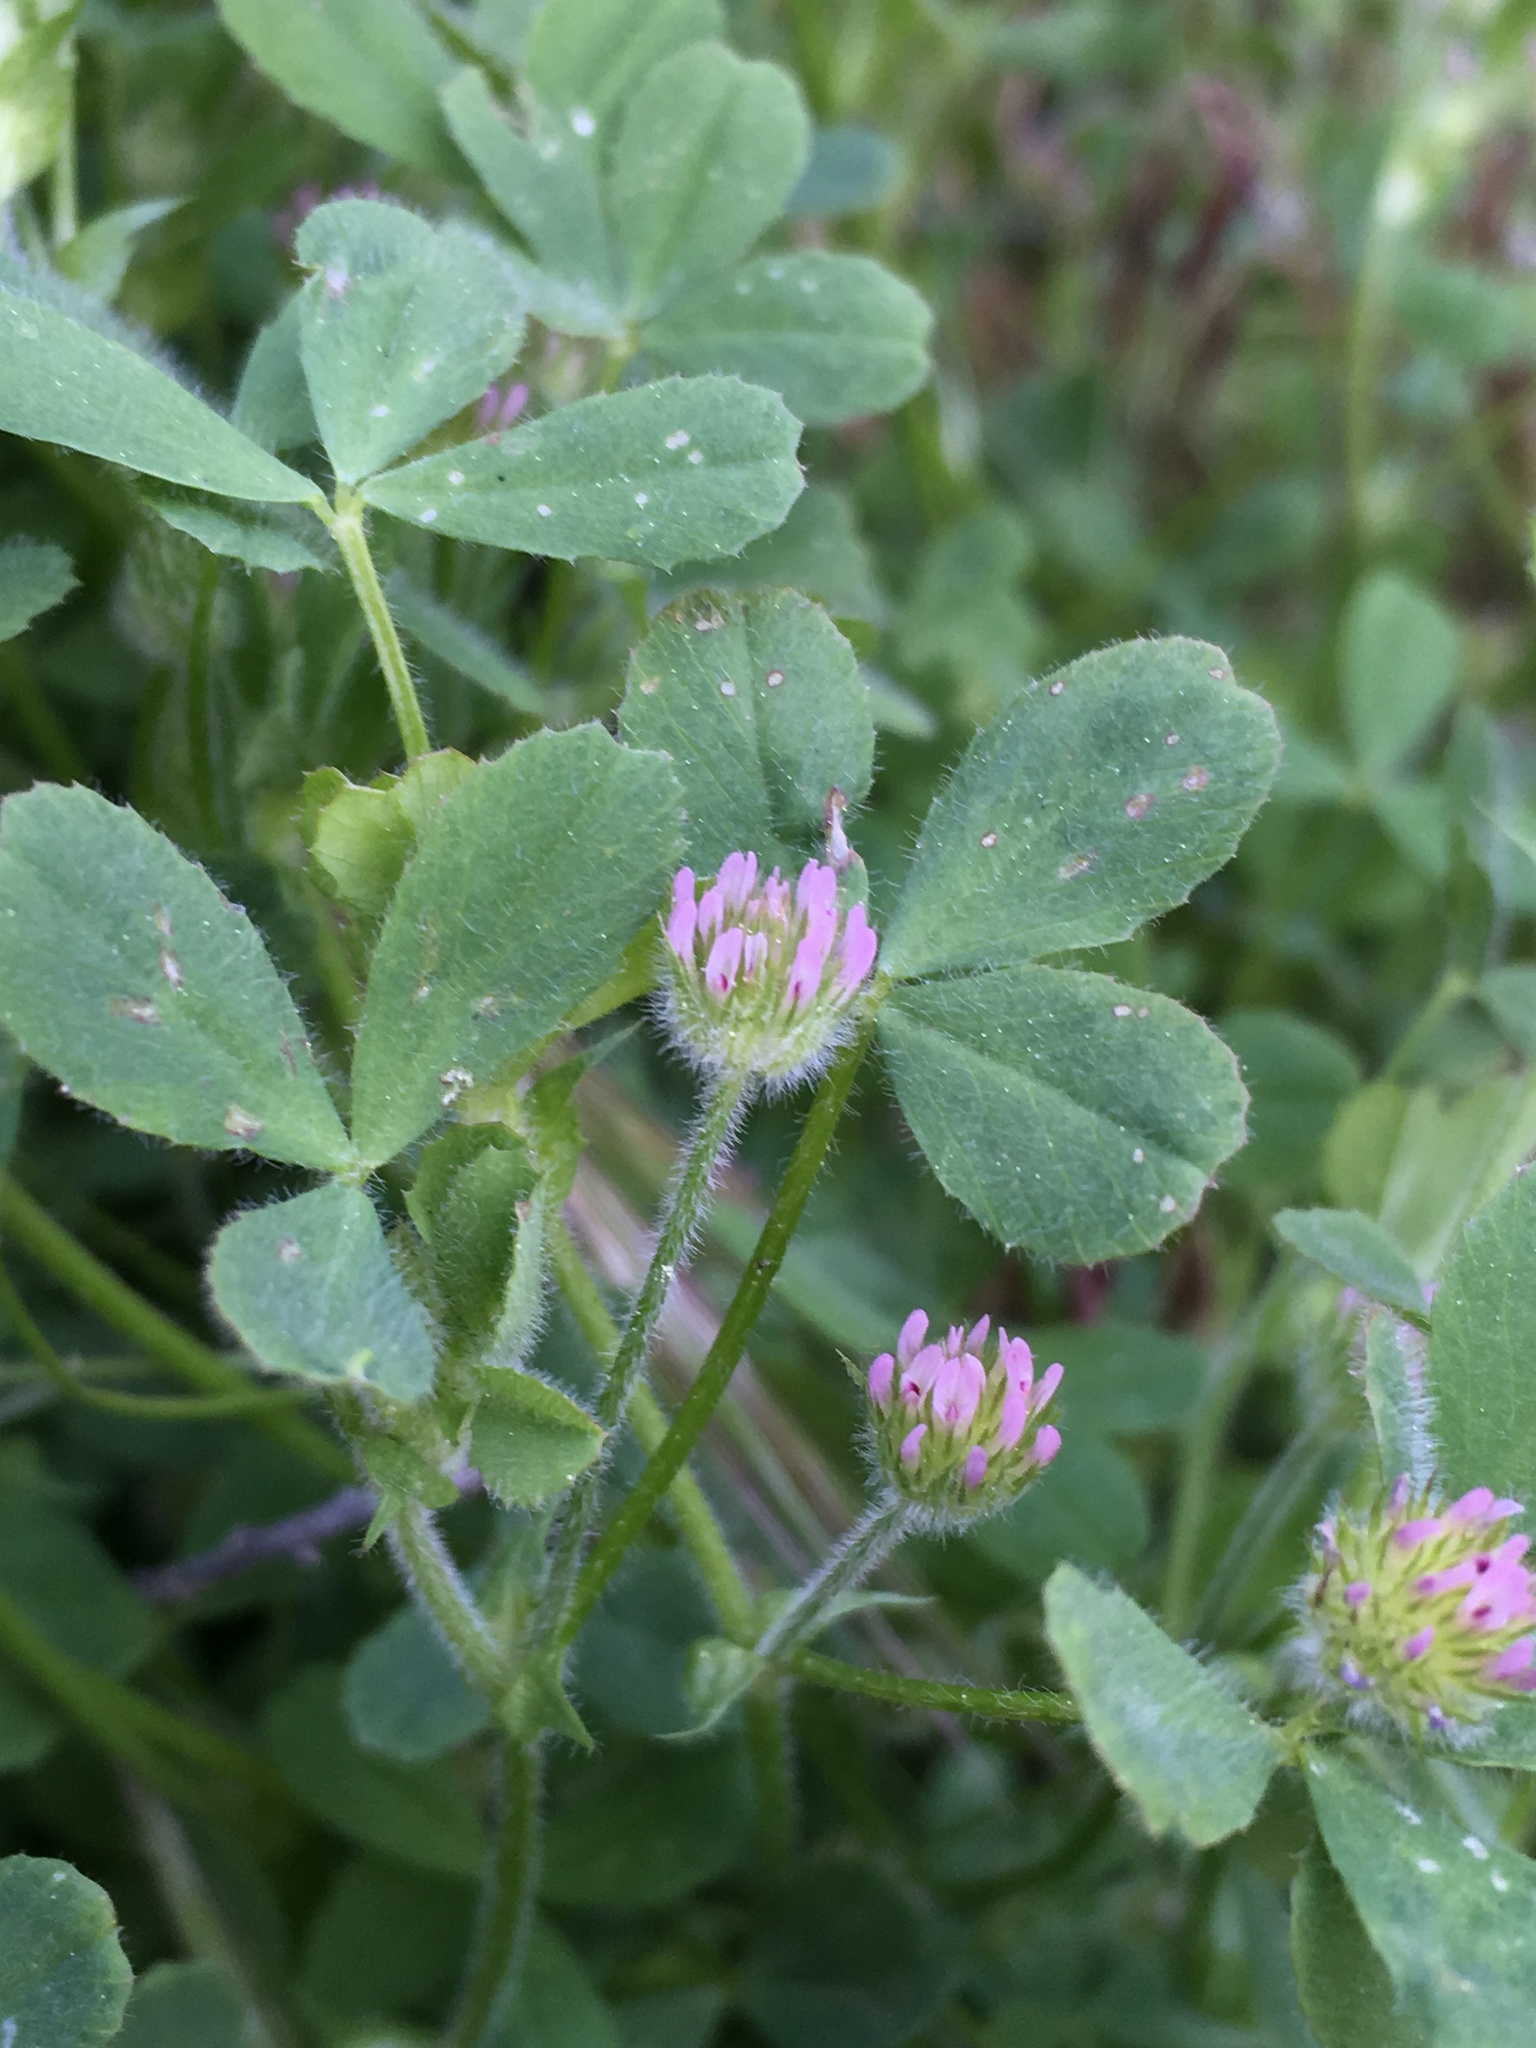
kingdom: Plantae
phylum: Tracheophyta
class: Magnoliopsida
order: Fabales
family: Fabaceae
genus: Trifolium
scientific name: Trifolium microcephalum
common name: Maiden clover
